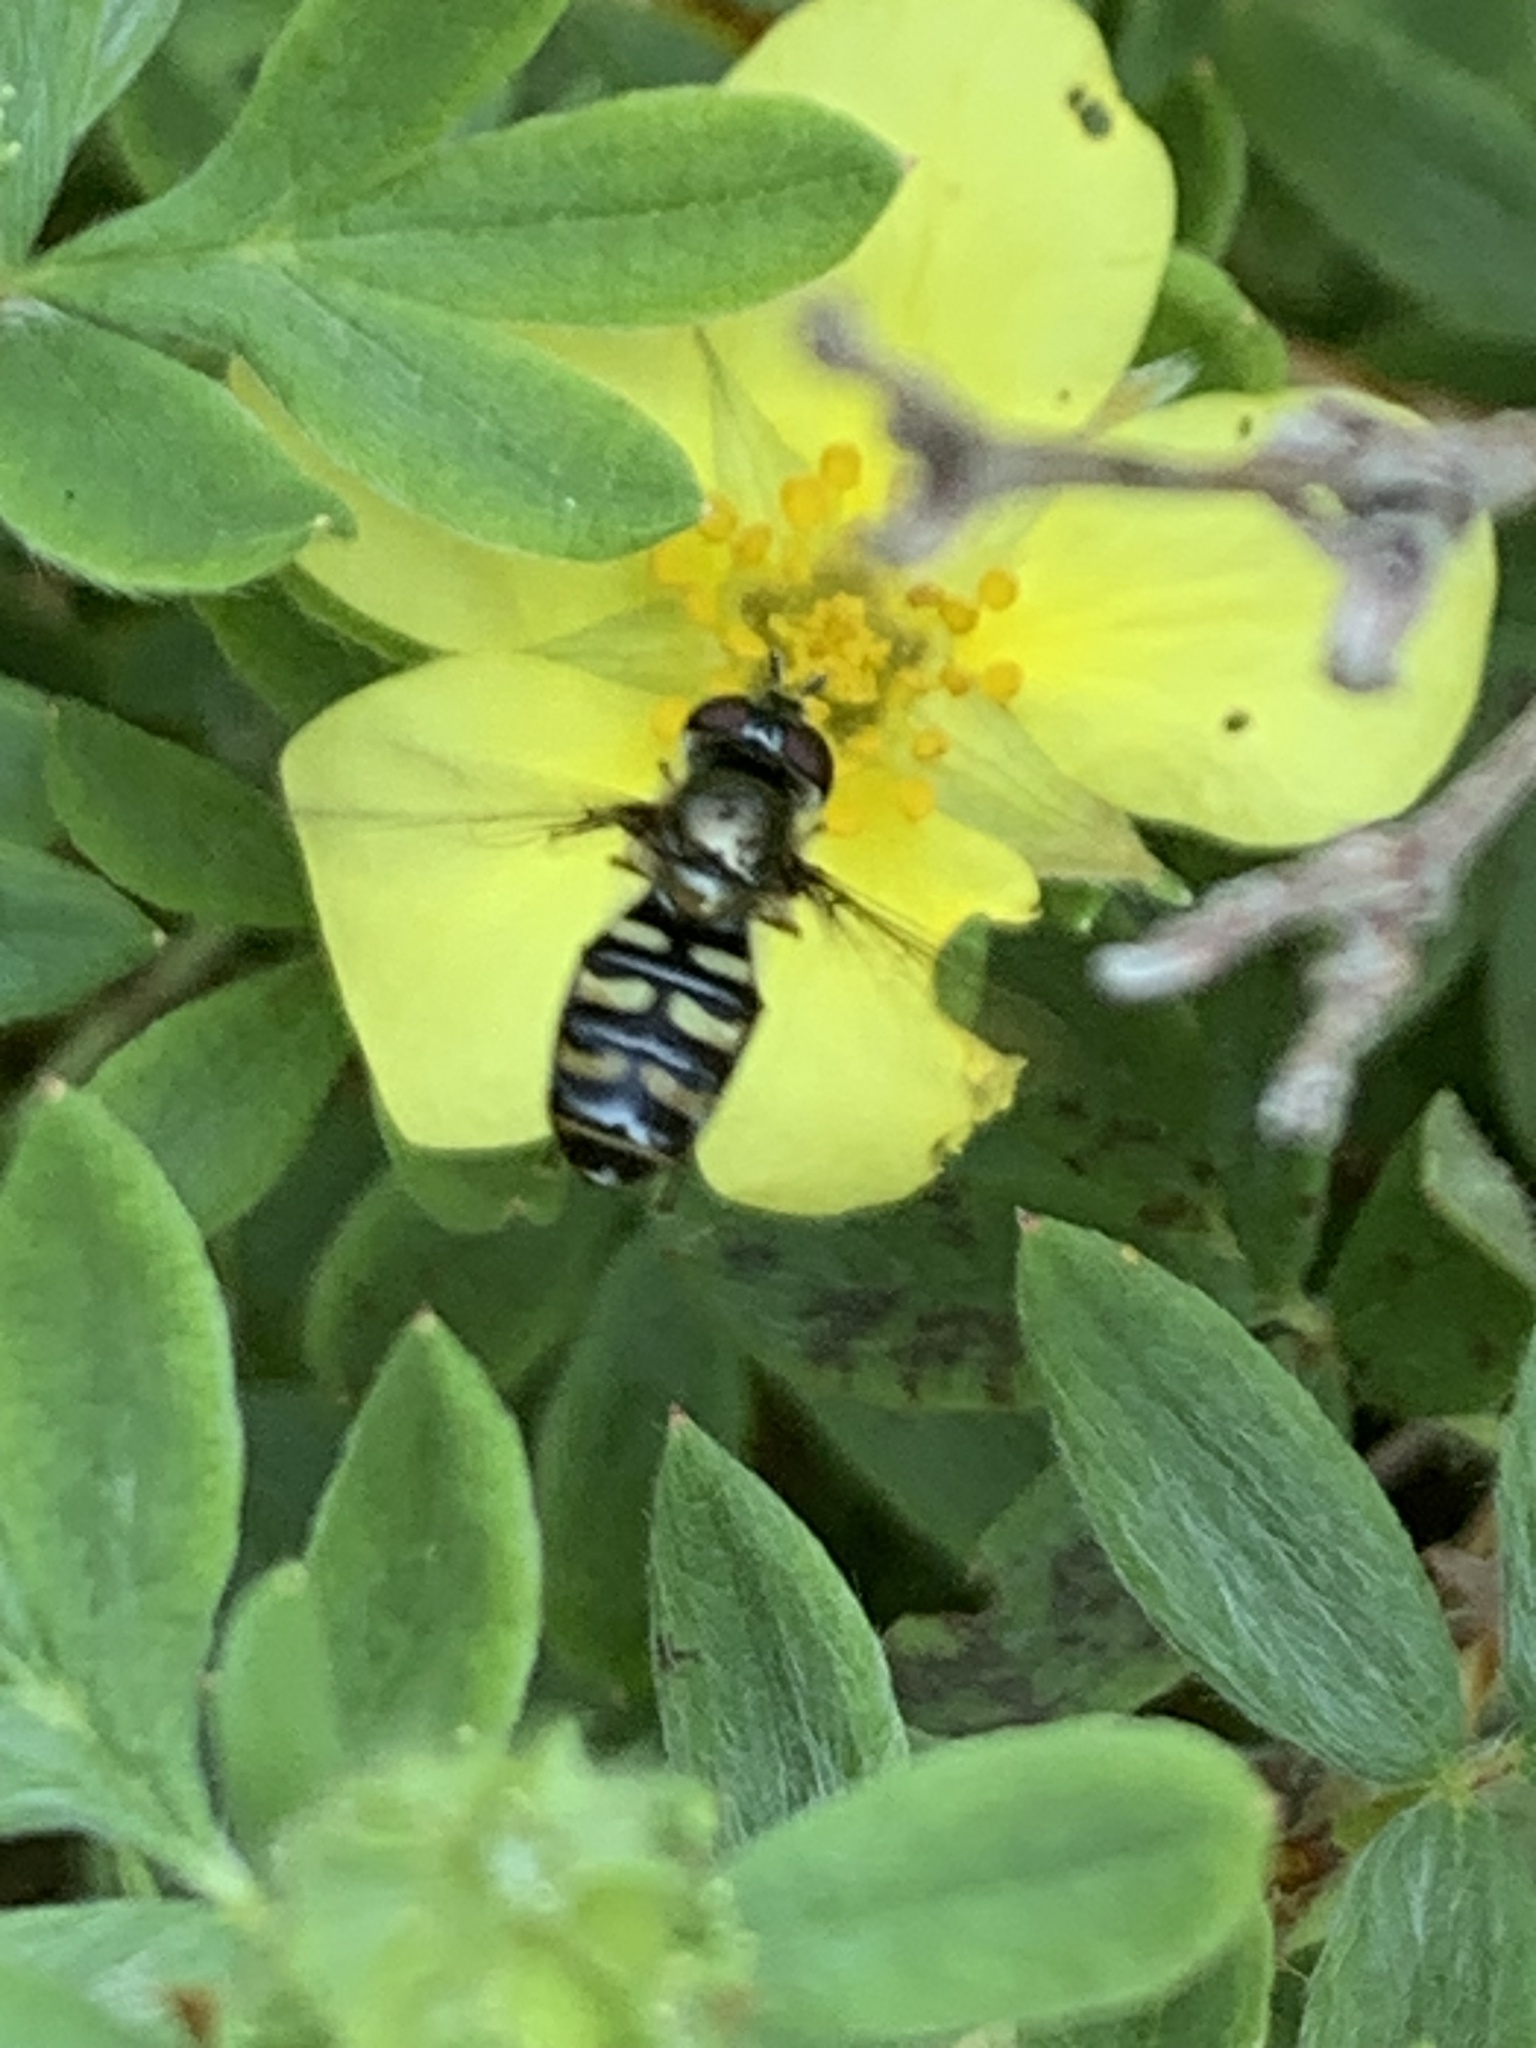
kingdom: Animalia
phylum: Arthropoda
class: Insecta
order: Diptera
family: Syrphidae
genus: Eupeodes
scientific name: Eupeodes perplexus
